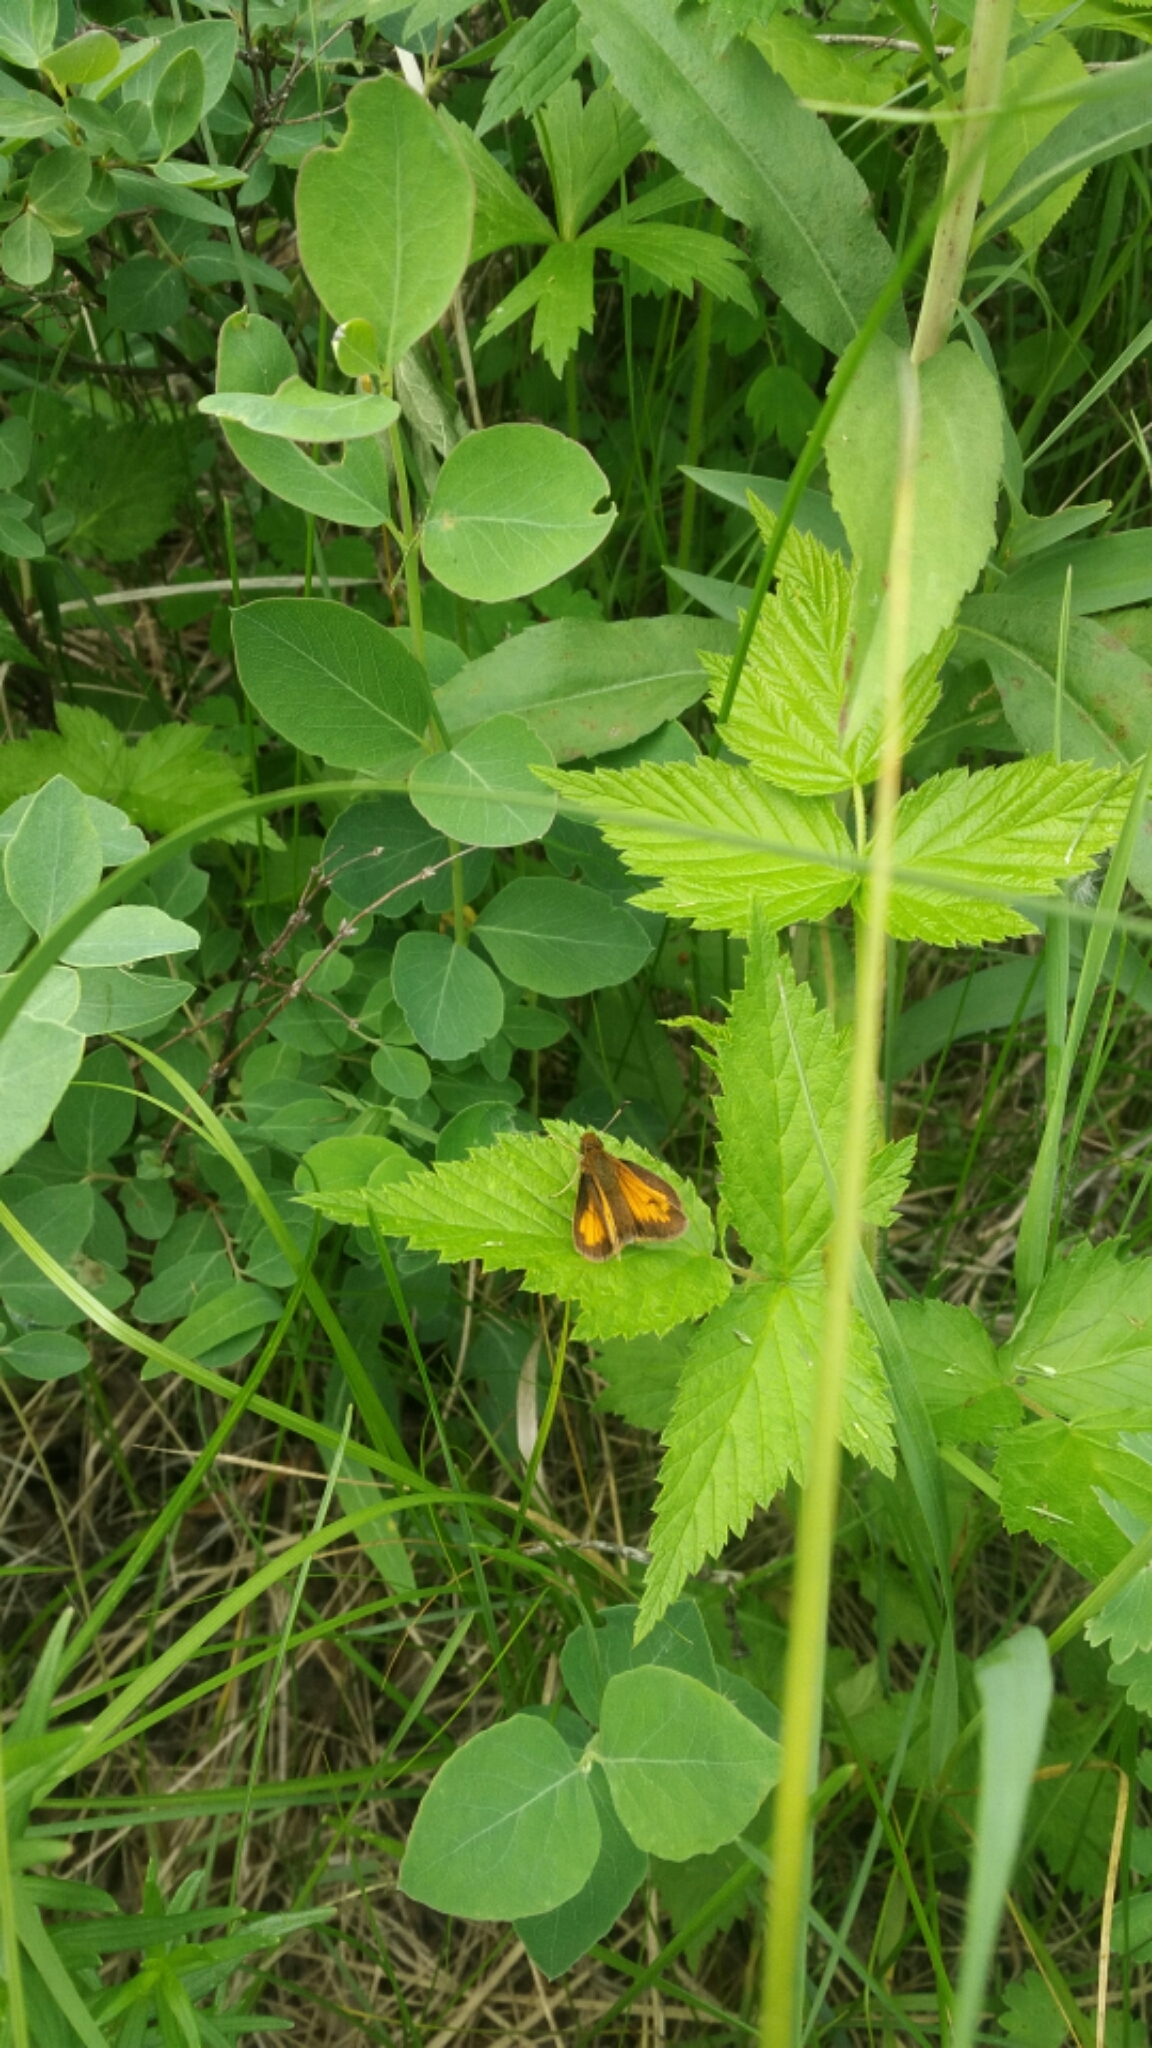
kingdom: Animalia
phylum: Arthropoda
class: Insecta
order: Lepidoptera
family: Hesperiidae
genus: Lon
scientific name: Lon hobomok
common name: Hobomok skipper
